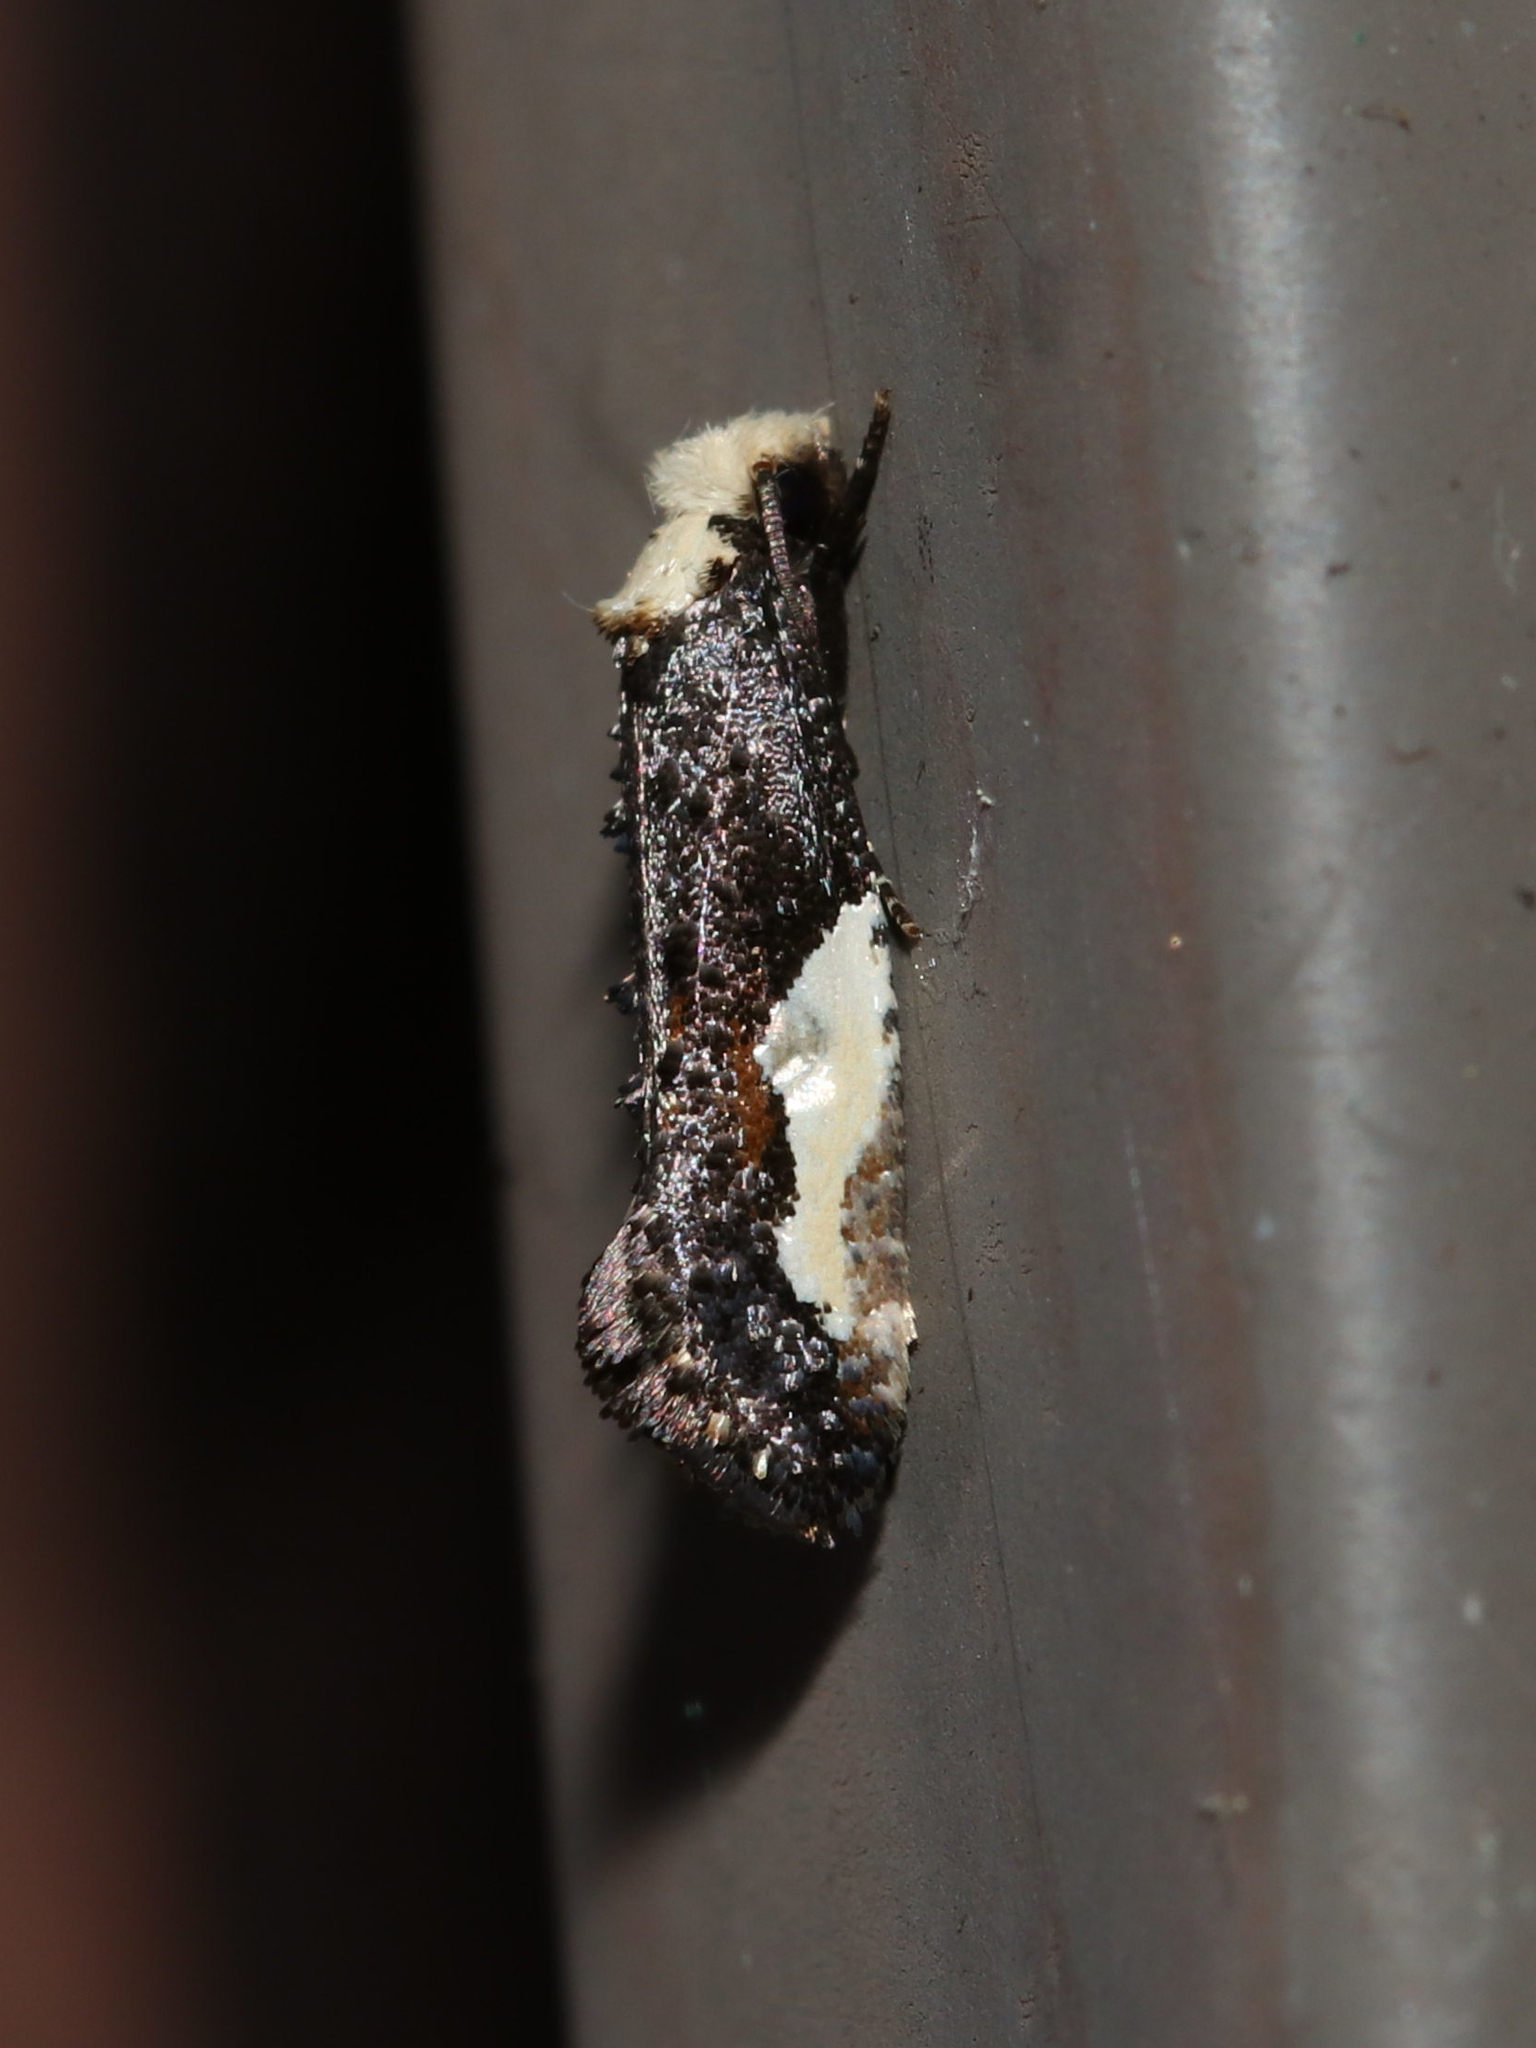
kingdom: Animalia
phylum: Arthropoda
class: Insecta
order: Lepidoptera
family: Tineidae
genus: Monopis
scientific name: Monopis longella
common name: Pavlovski's monopis moth
